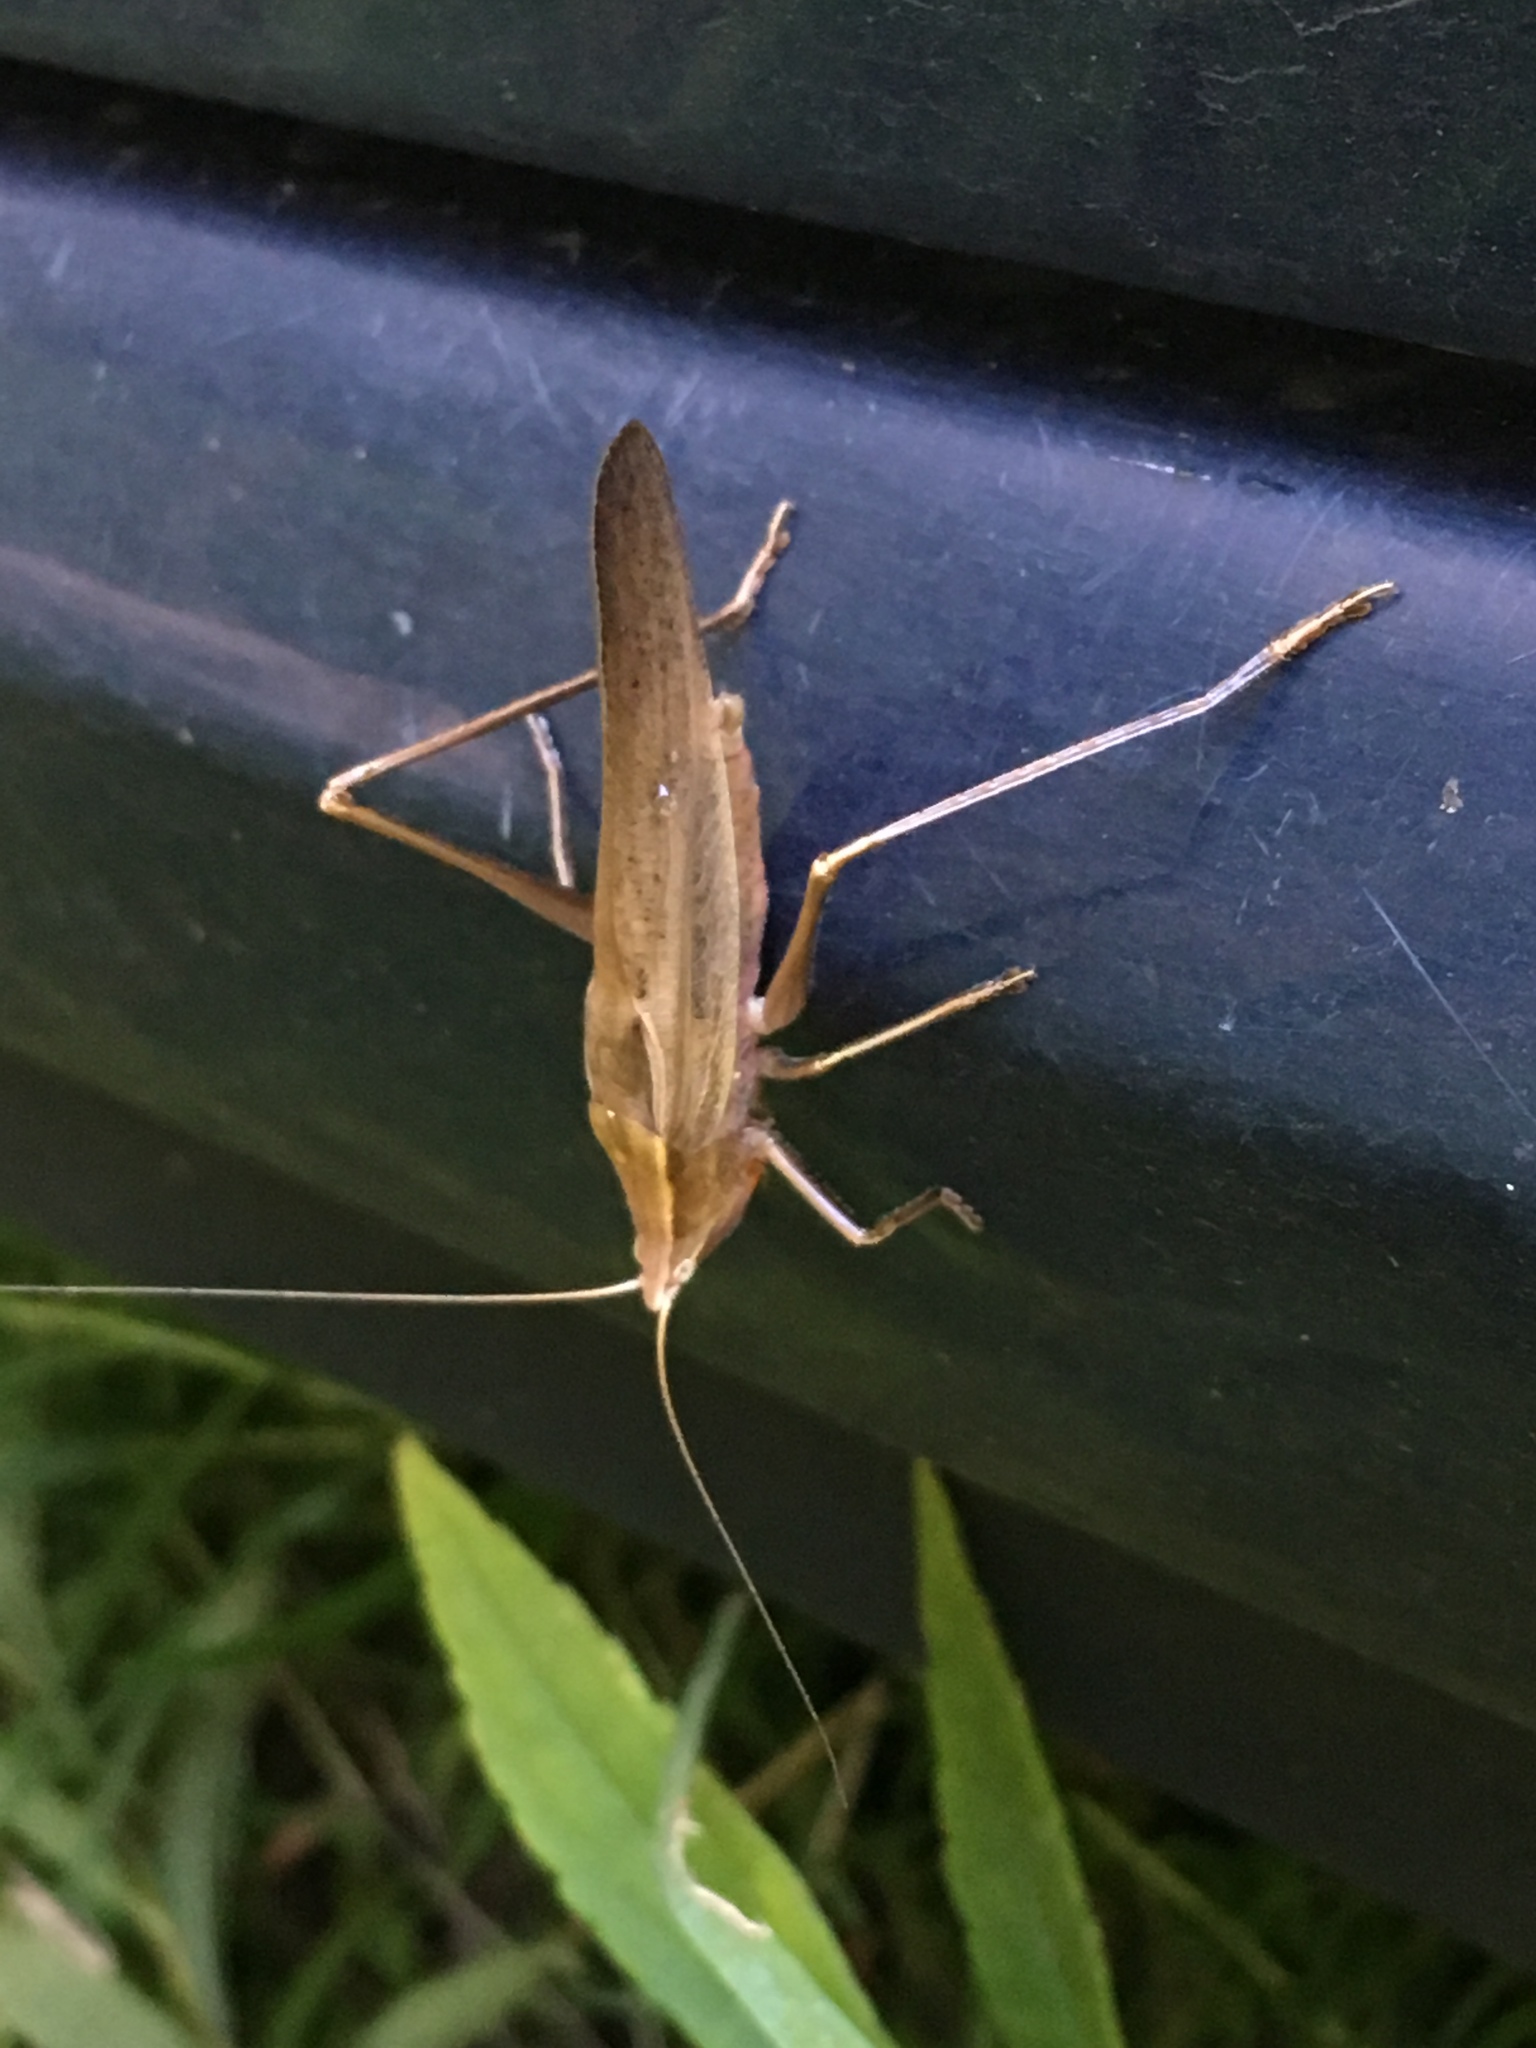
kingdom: Animalia
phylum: Arthropoda
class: Insecta
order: Orthoptera
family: Tettigoniidae
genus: Neoconocephalus
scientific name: Neoconocephalus triops
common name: Broad-tipped conehead
